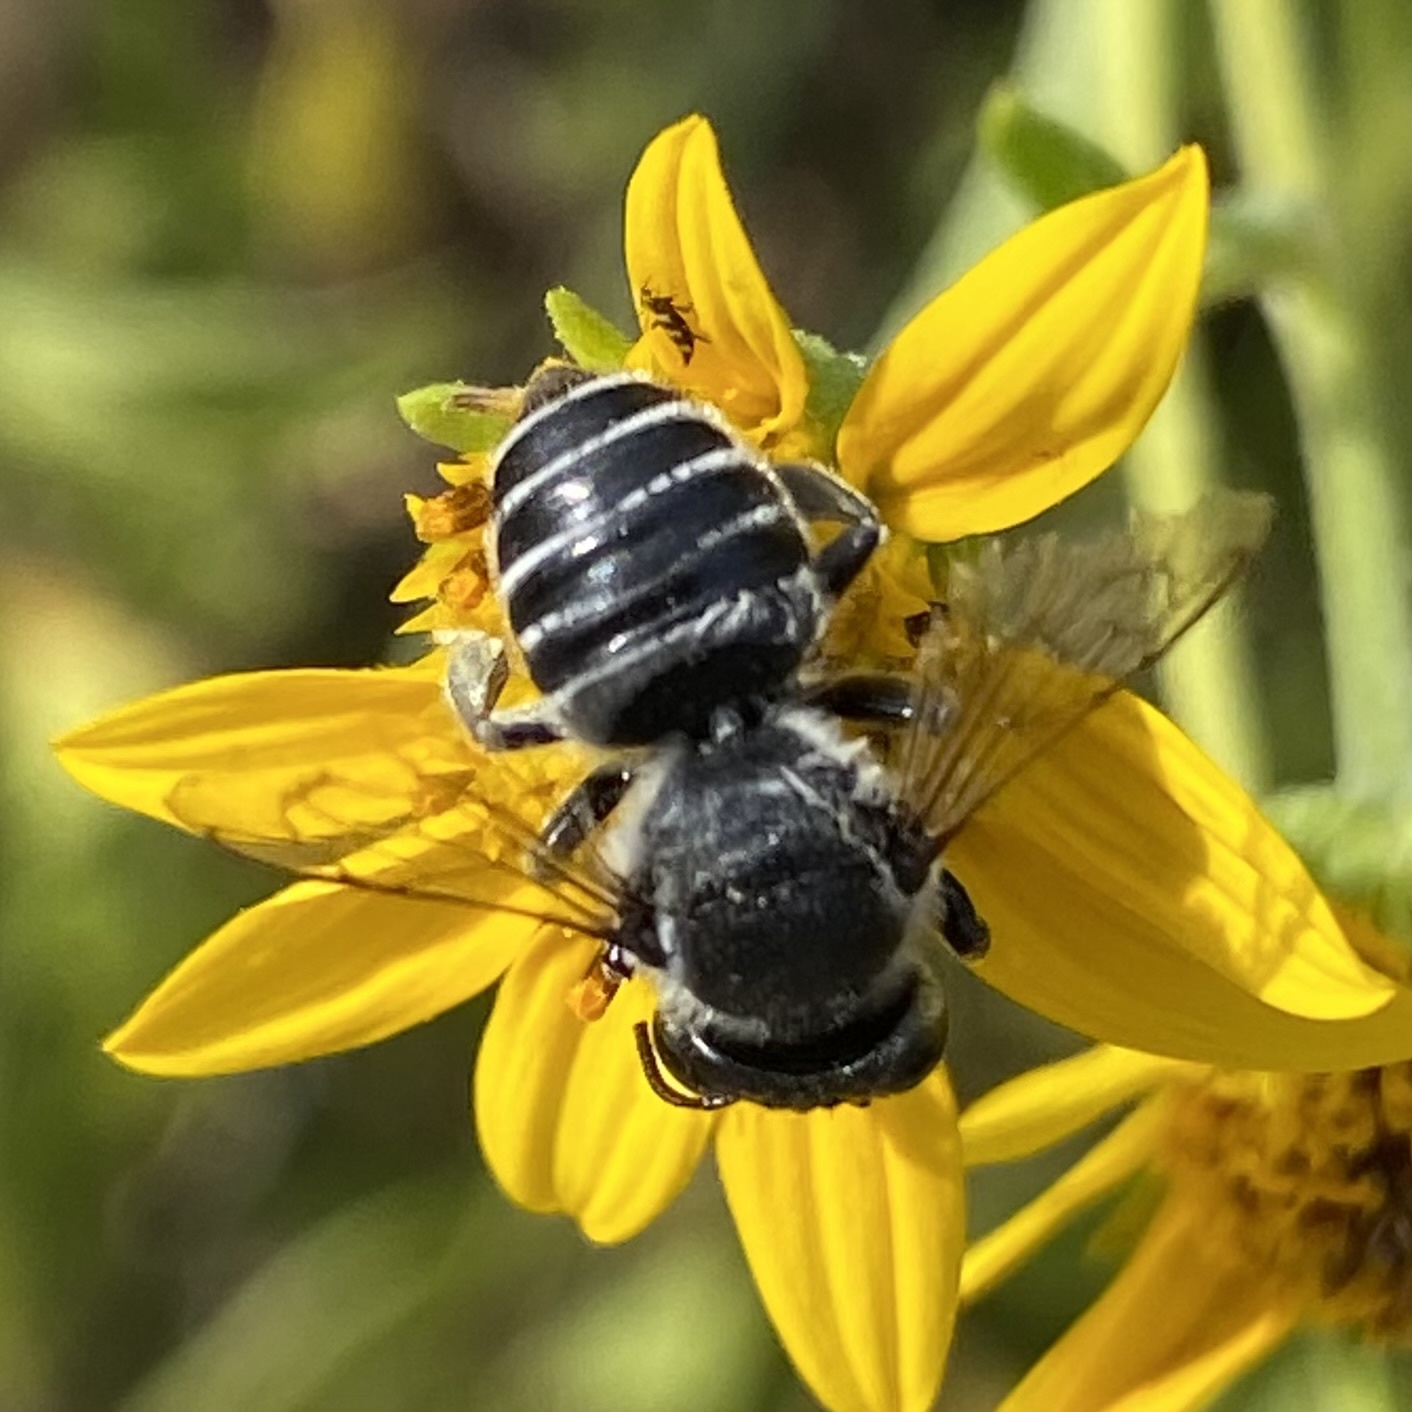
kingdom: Animalia
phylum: Arthropoda
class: Insecta
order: Hymenoptera
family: Megachilidae
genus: Megachile
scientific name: Megachile
